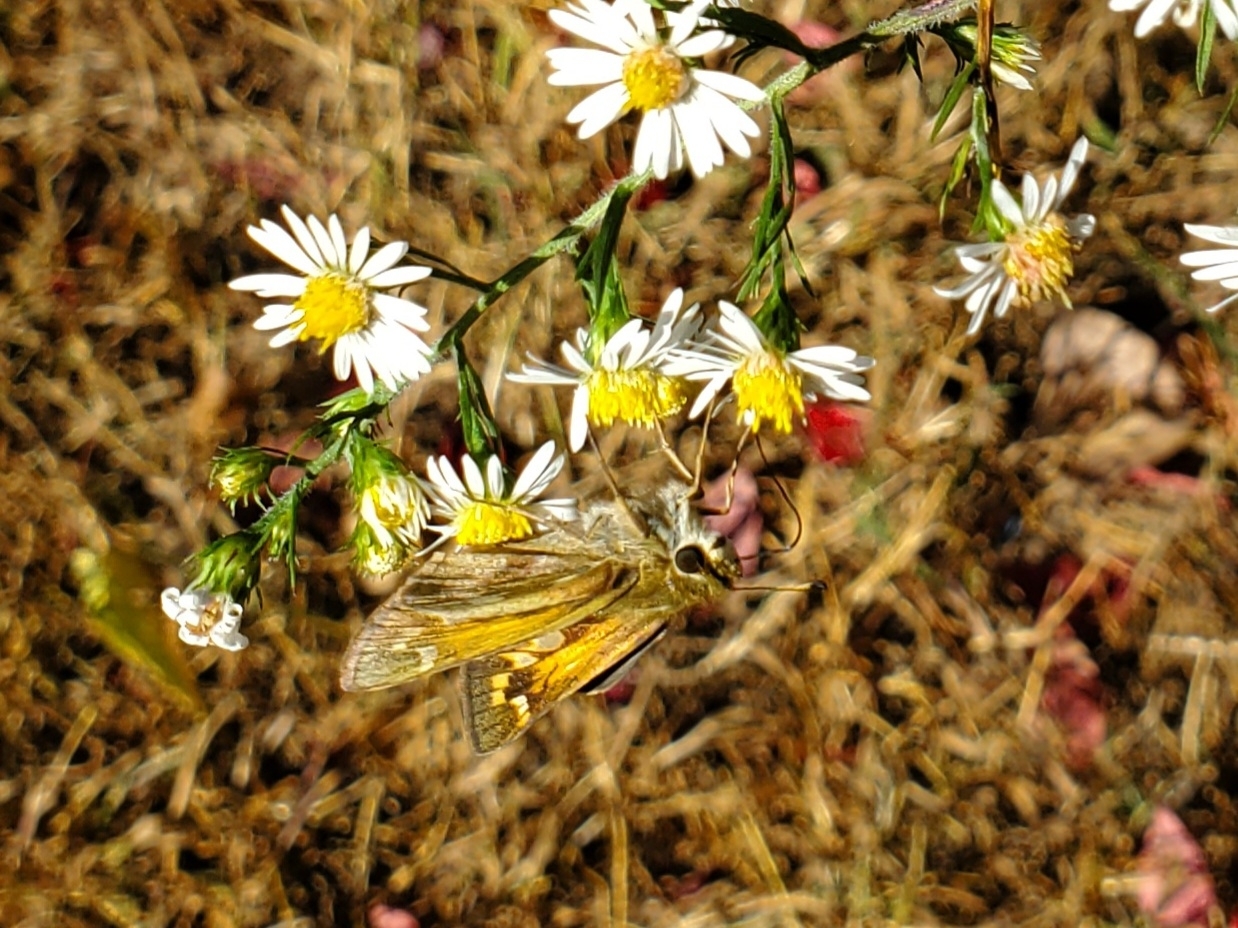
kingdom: Animalia
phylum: Arthropoda
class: Insecta
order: Lepidoptera
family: Hesperiidae
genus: Atalopedes
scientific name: Atalopedes
